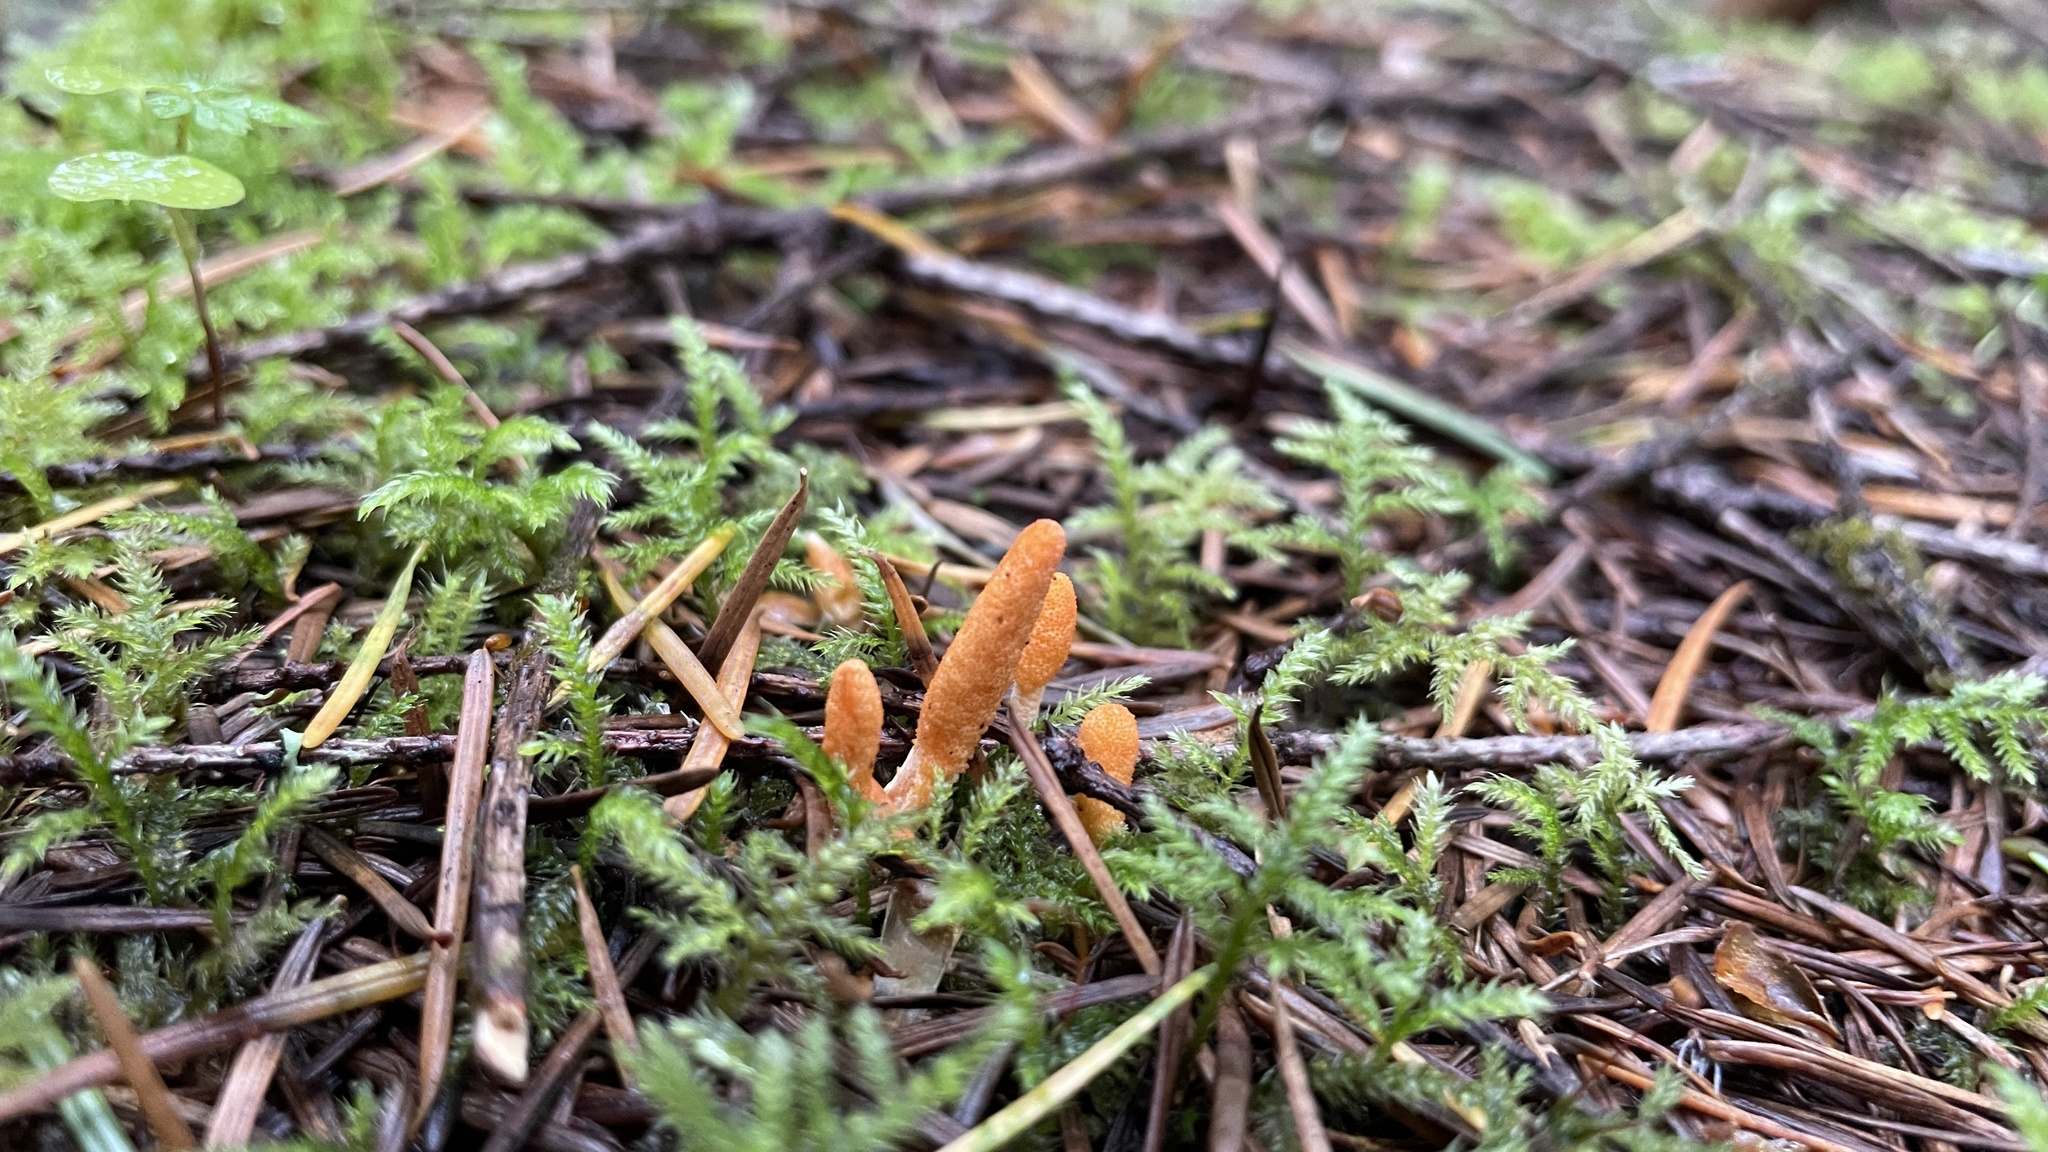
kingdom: Fungi
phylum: Ascomycota
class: Sordariomycetes
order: Hypocreales
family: Cordycipitaceae
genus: Cordyceps
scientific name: Cordyceps militaris
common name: Scarlet caterpillar fungus
